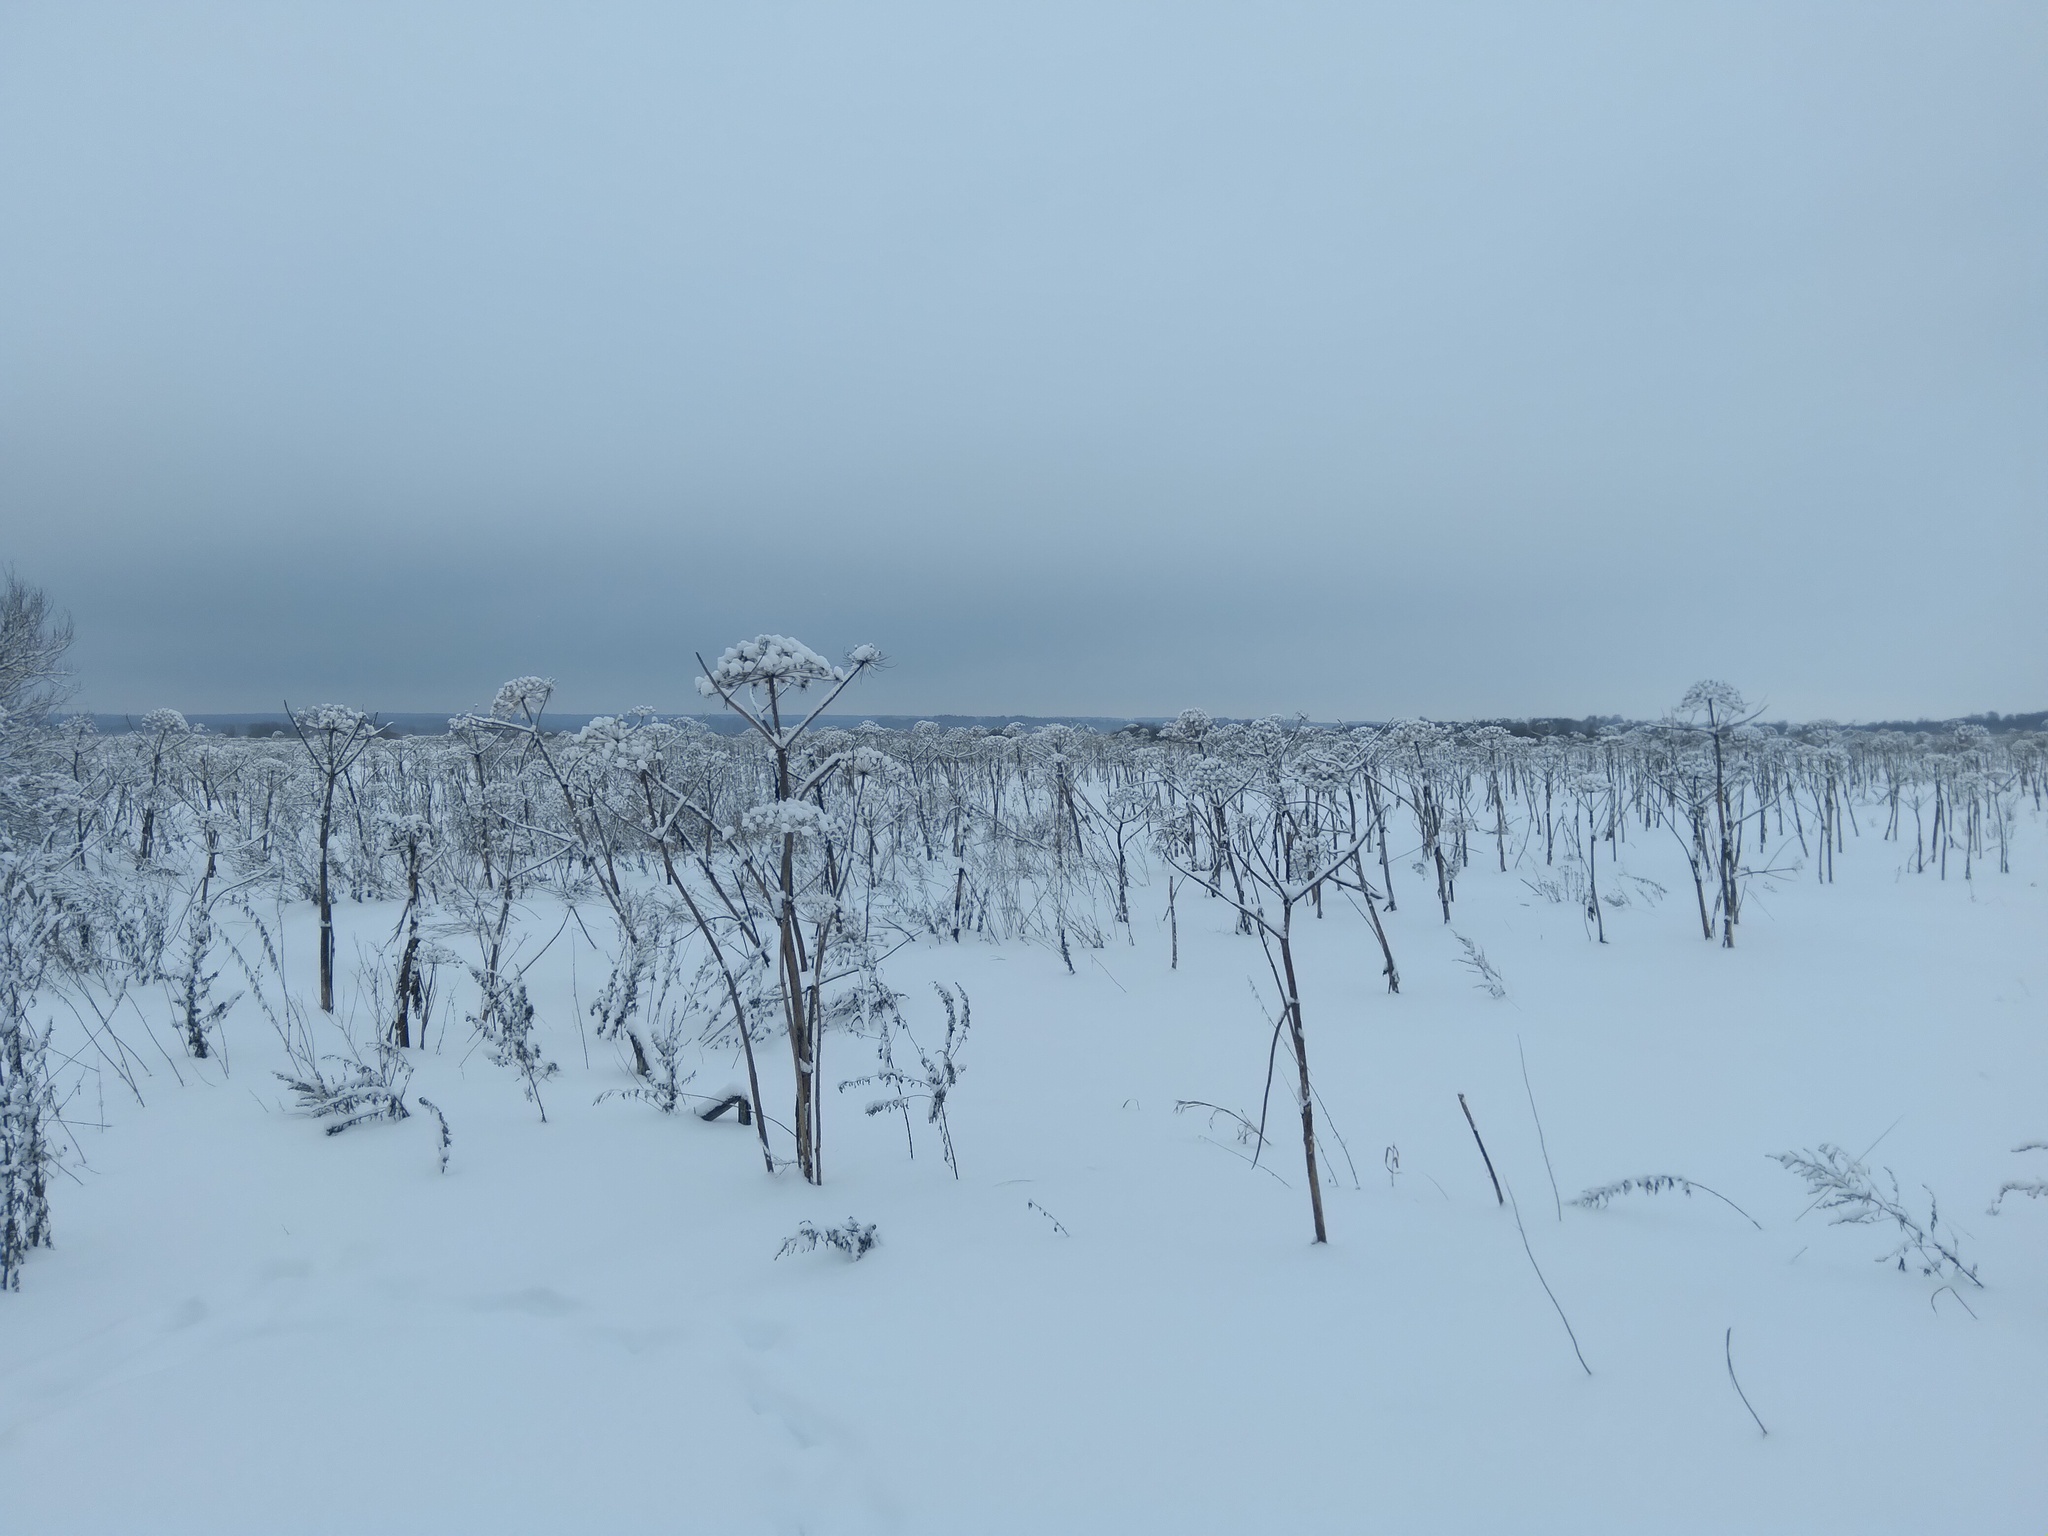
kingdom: Plantae
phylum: Tracheophyta
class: Magnoliopsida
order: Apiales
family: Apiaceae
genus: Heracleum
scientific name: Heracleum sosnowskyi
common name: Sosnowsky's hogweed
